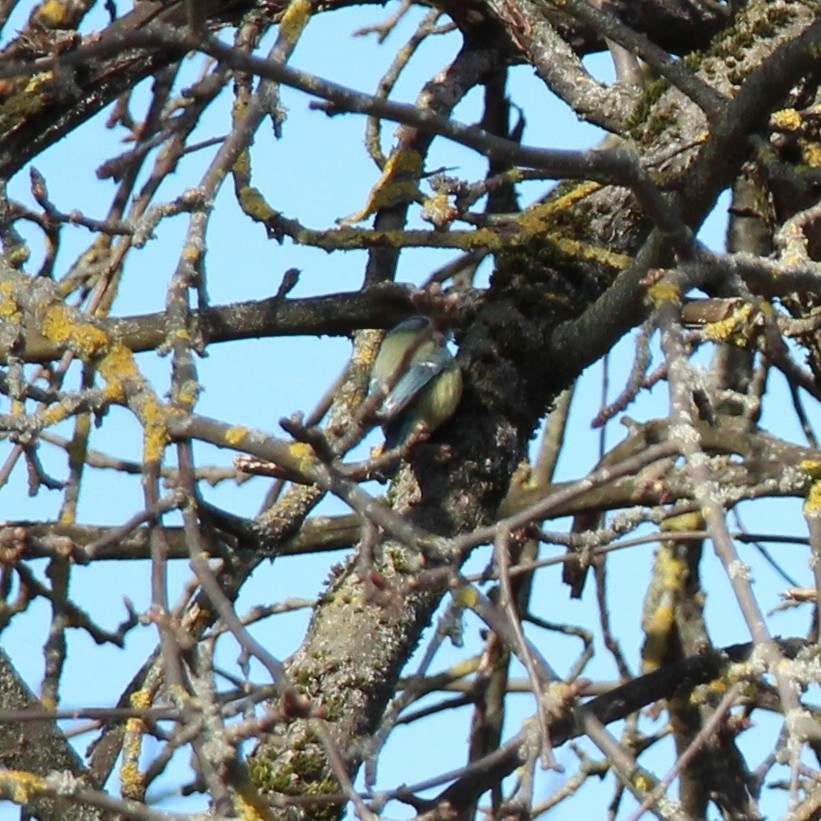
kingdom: Animalia
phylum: Chordata
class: Aves
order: Passeriformes
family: Paridae
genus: Cyanistes
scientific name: Cyanistes caeruleus
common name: Eurasian blue tit
